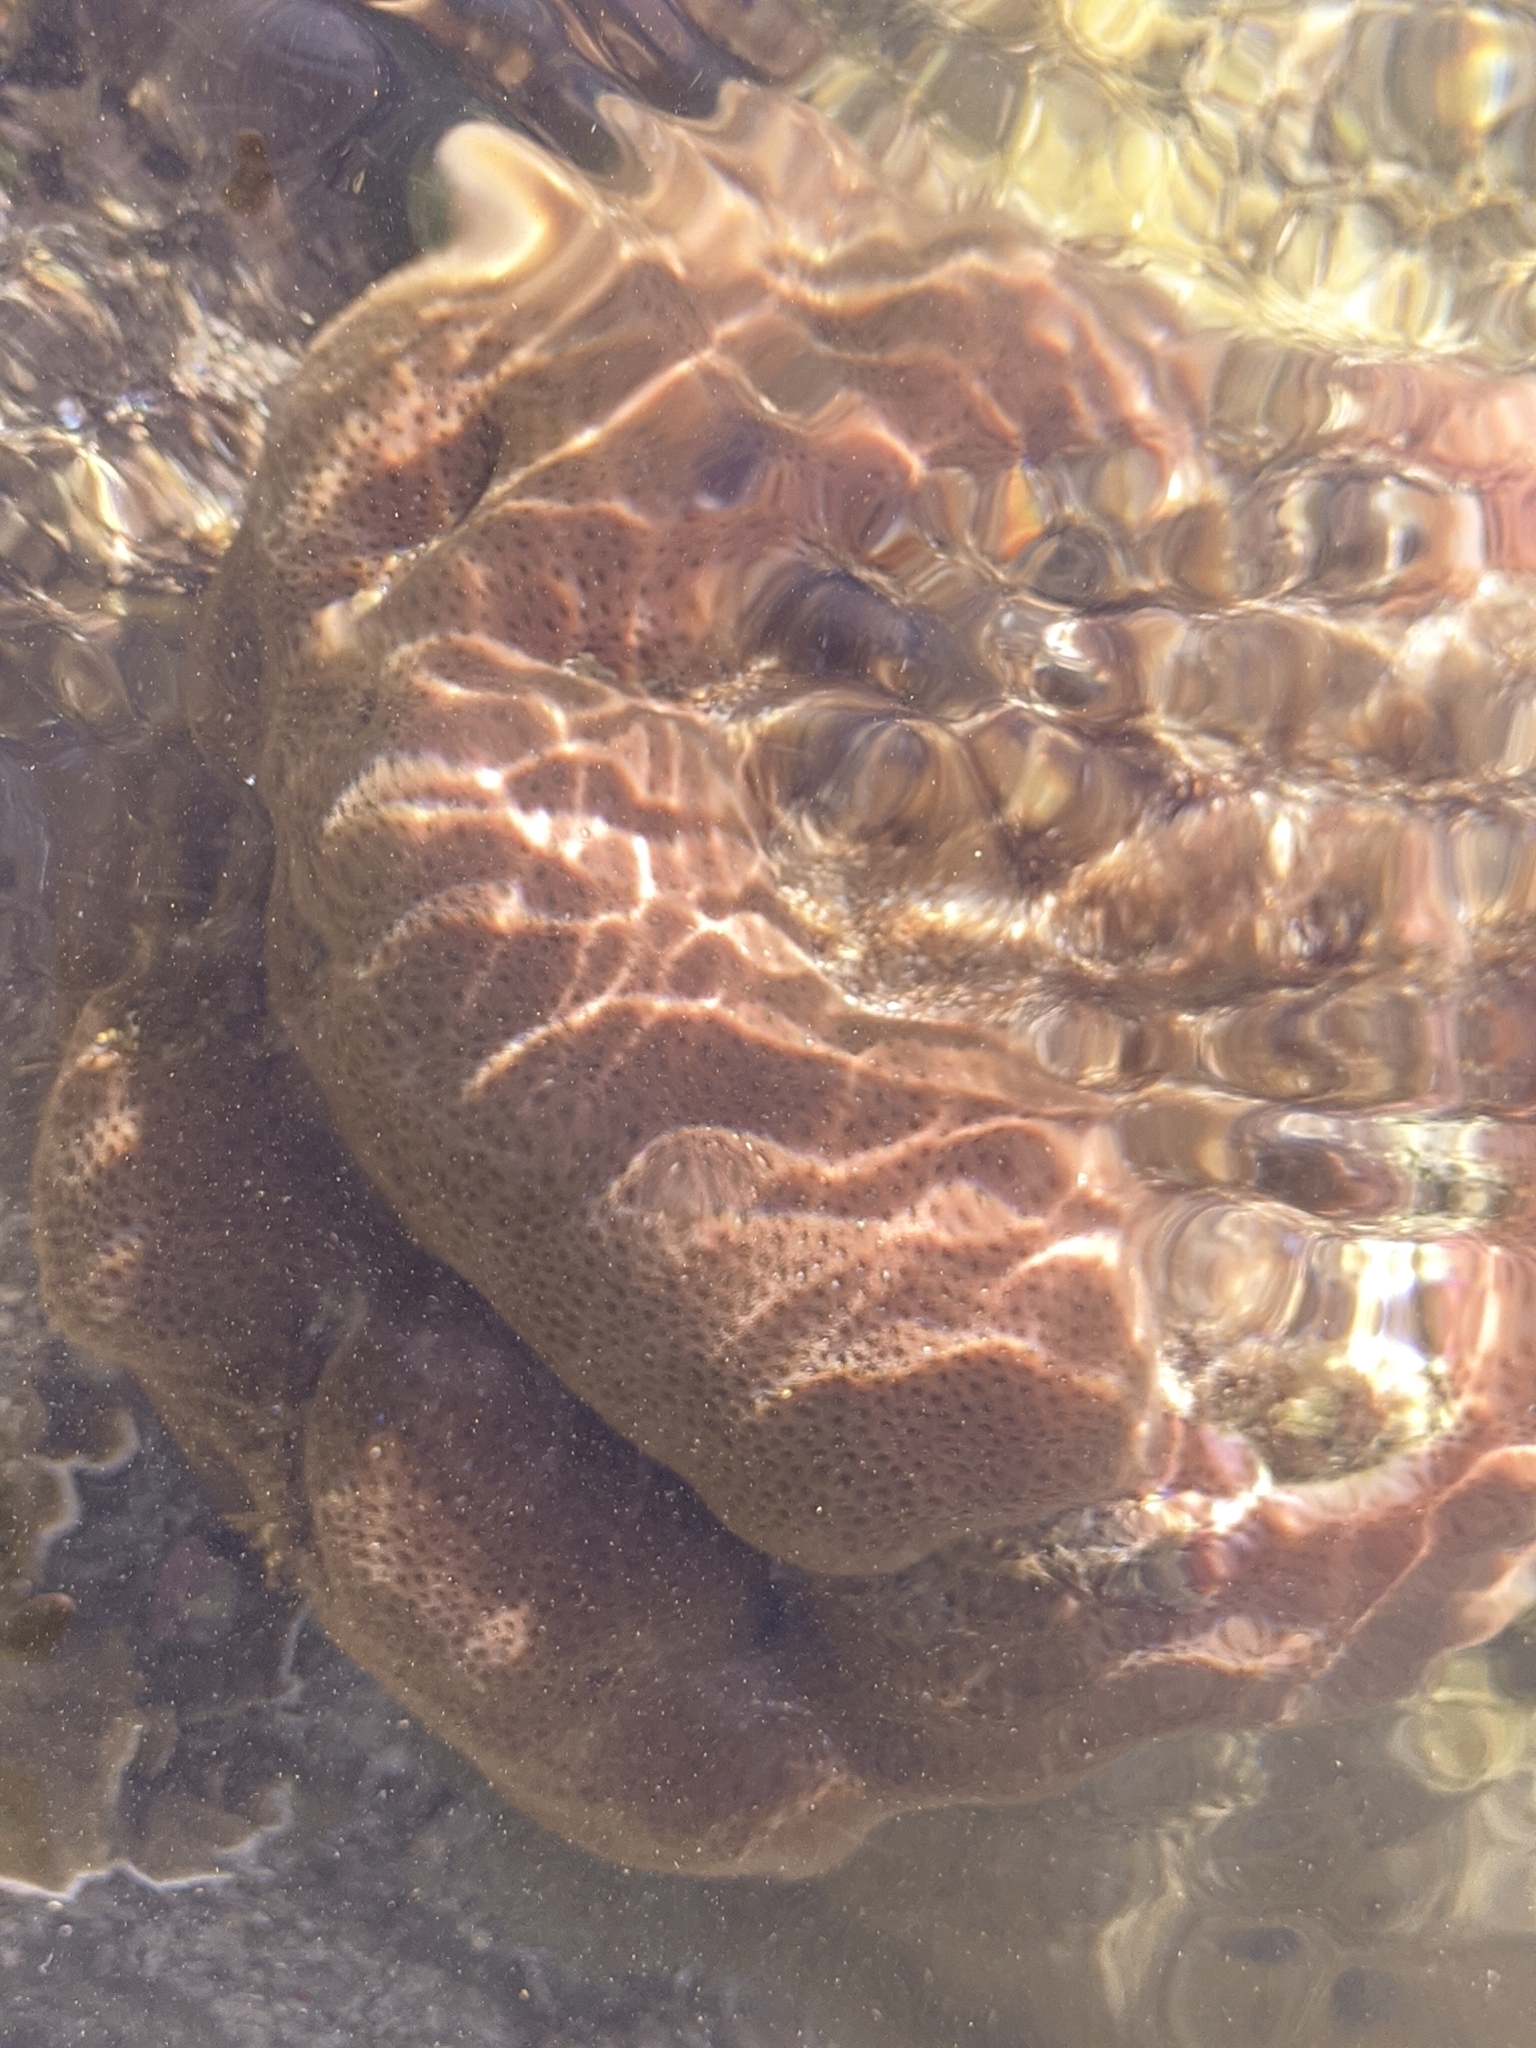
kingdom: Animalia
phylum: Cnidaria
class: Anthozoa
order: Scleractinia
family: Rhizangiidae
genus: Siderastrea
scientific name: Siderastrea siderea
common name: Massive starlet coral
